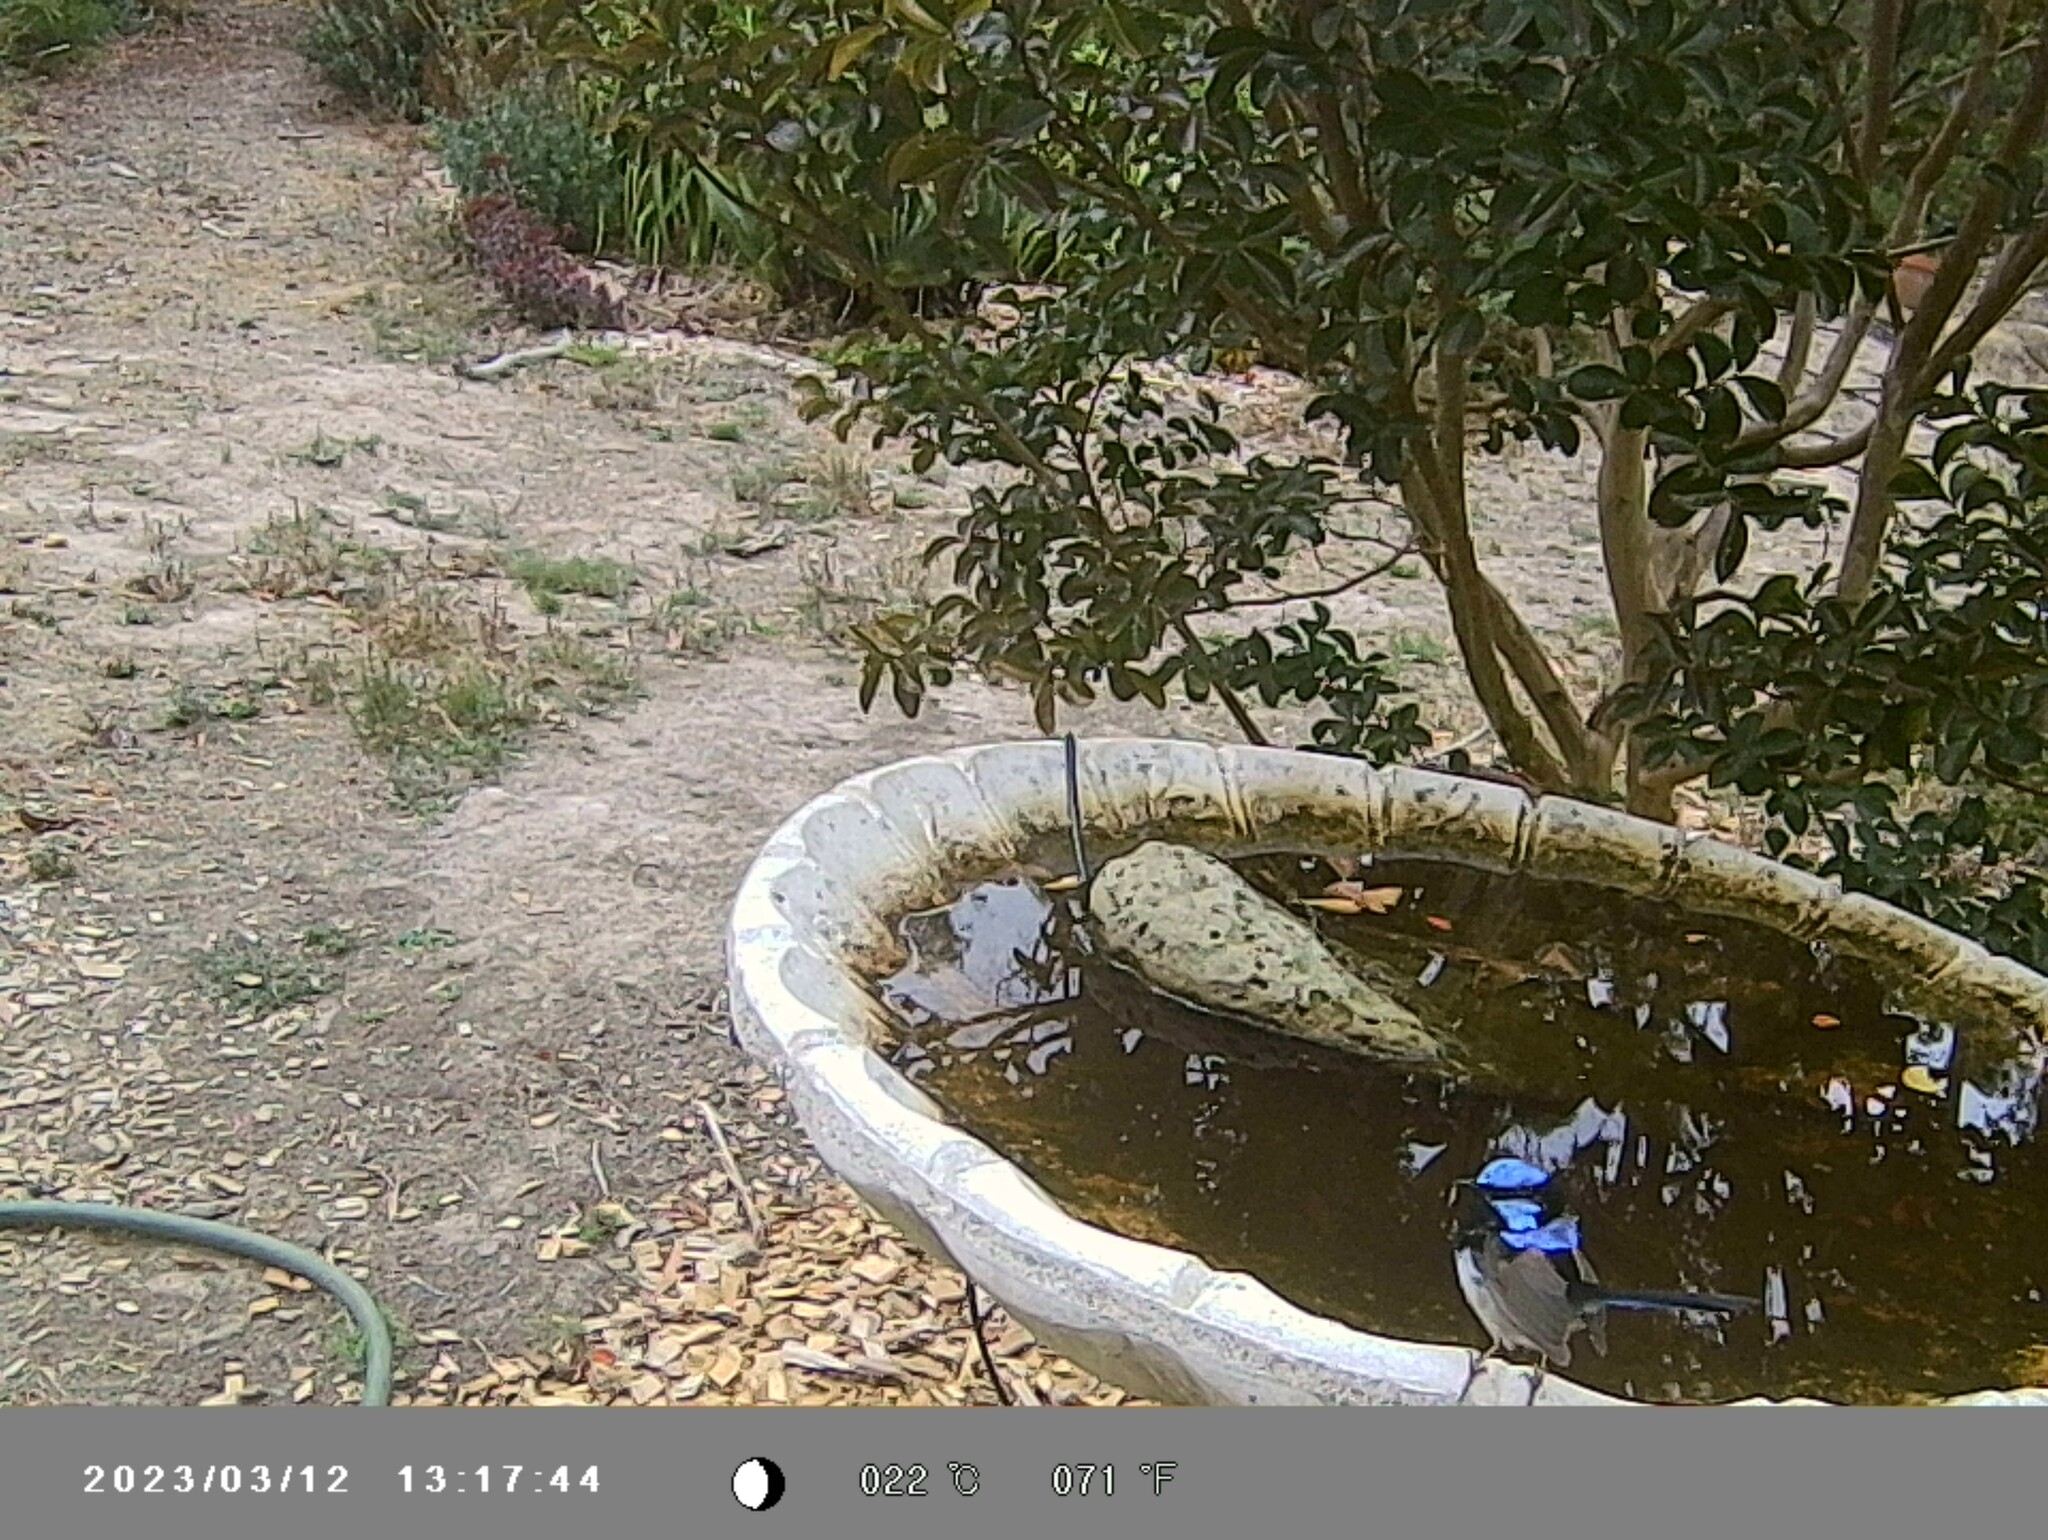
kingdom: Animalia
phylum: Chordata
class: Aves
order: Passeriformes
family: Maluridae
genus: Malurus
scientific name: Malurus cyaneus
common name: Superb fairywren
